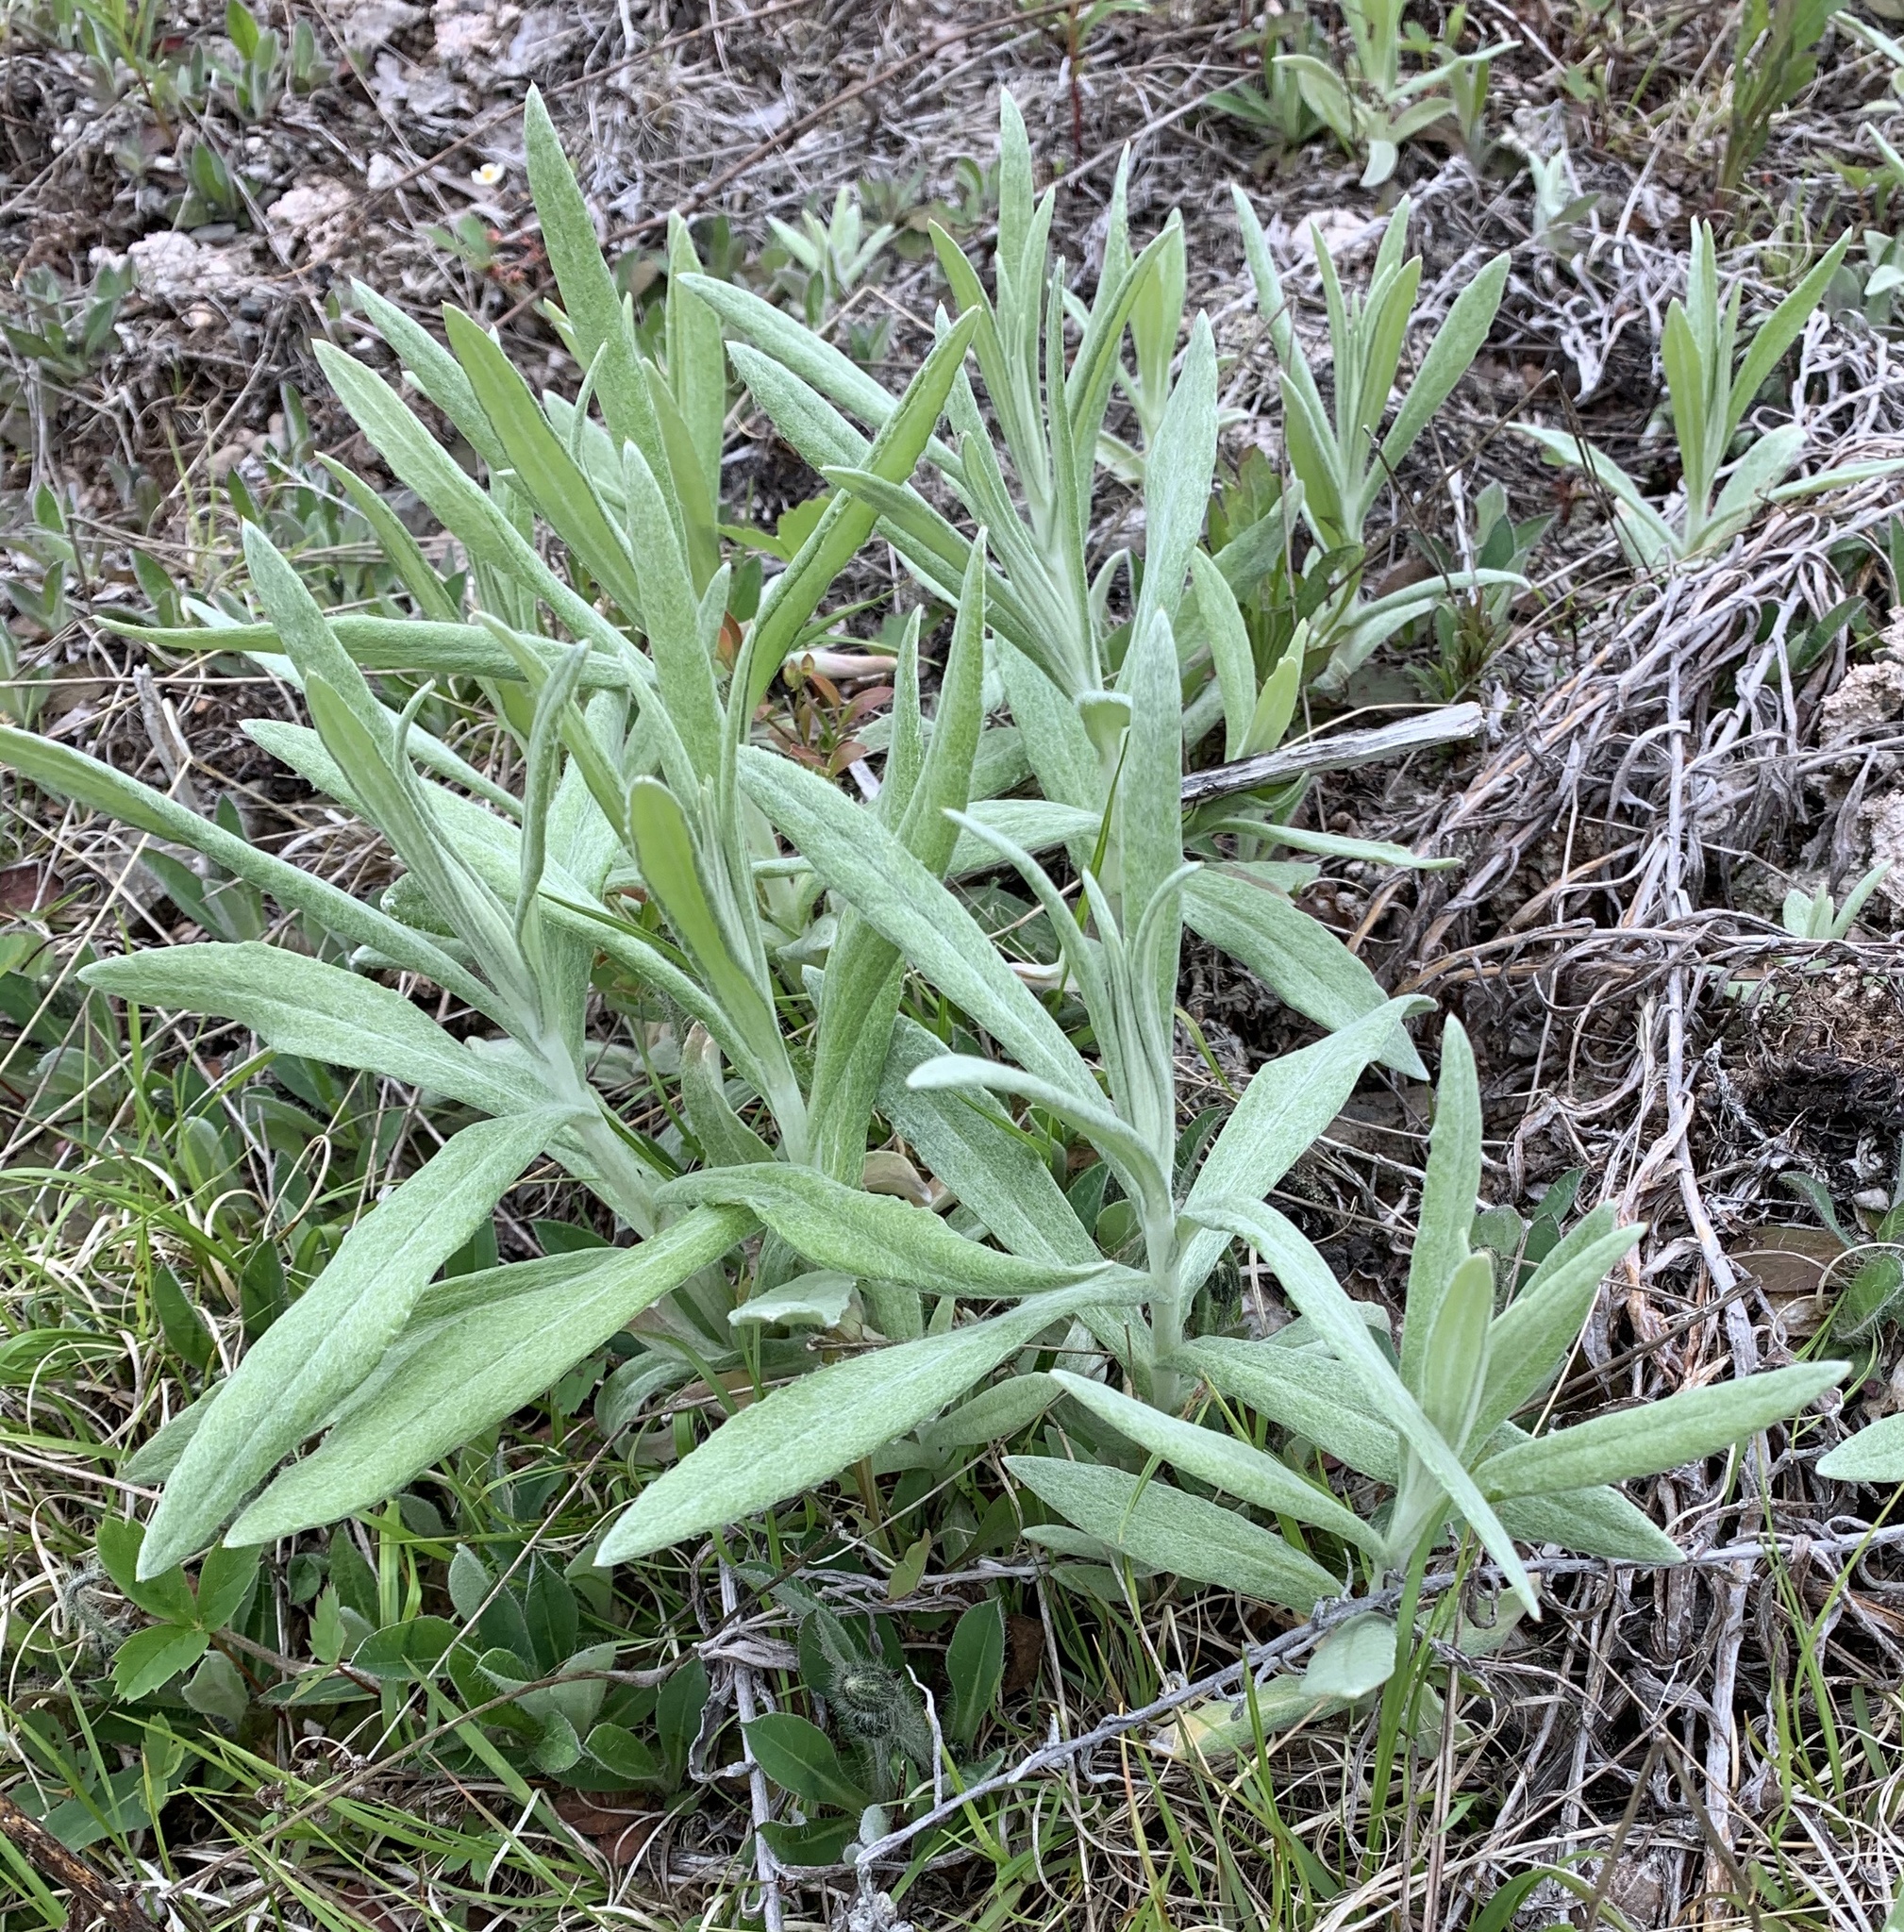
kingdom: Plantae
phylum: Tracheophyta
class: Magnoliopsida
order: Asterales
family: Asteraceae
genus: Anaphalis
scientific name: Anaphalis margaritacea
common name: Pearly everlasting
